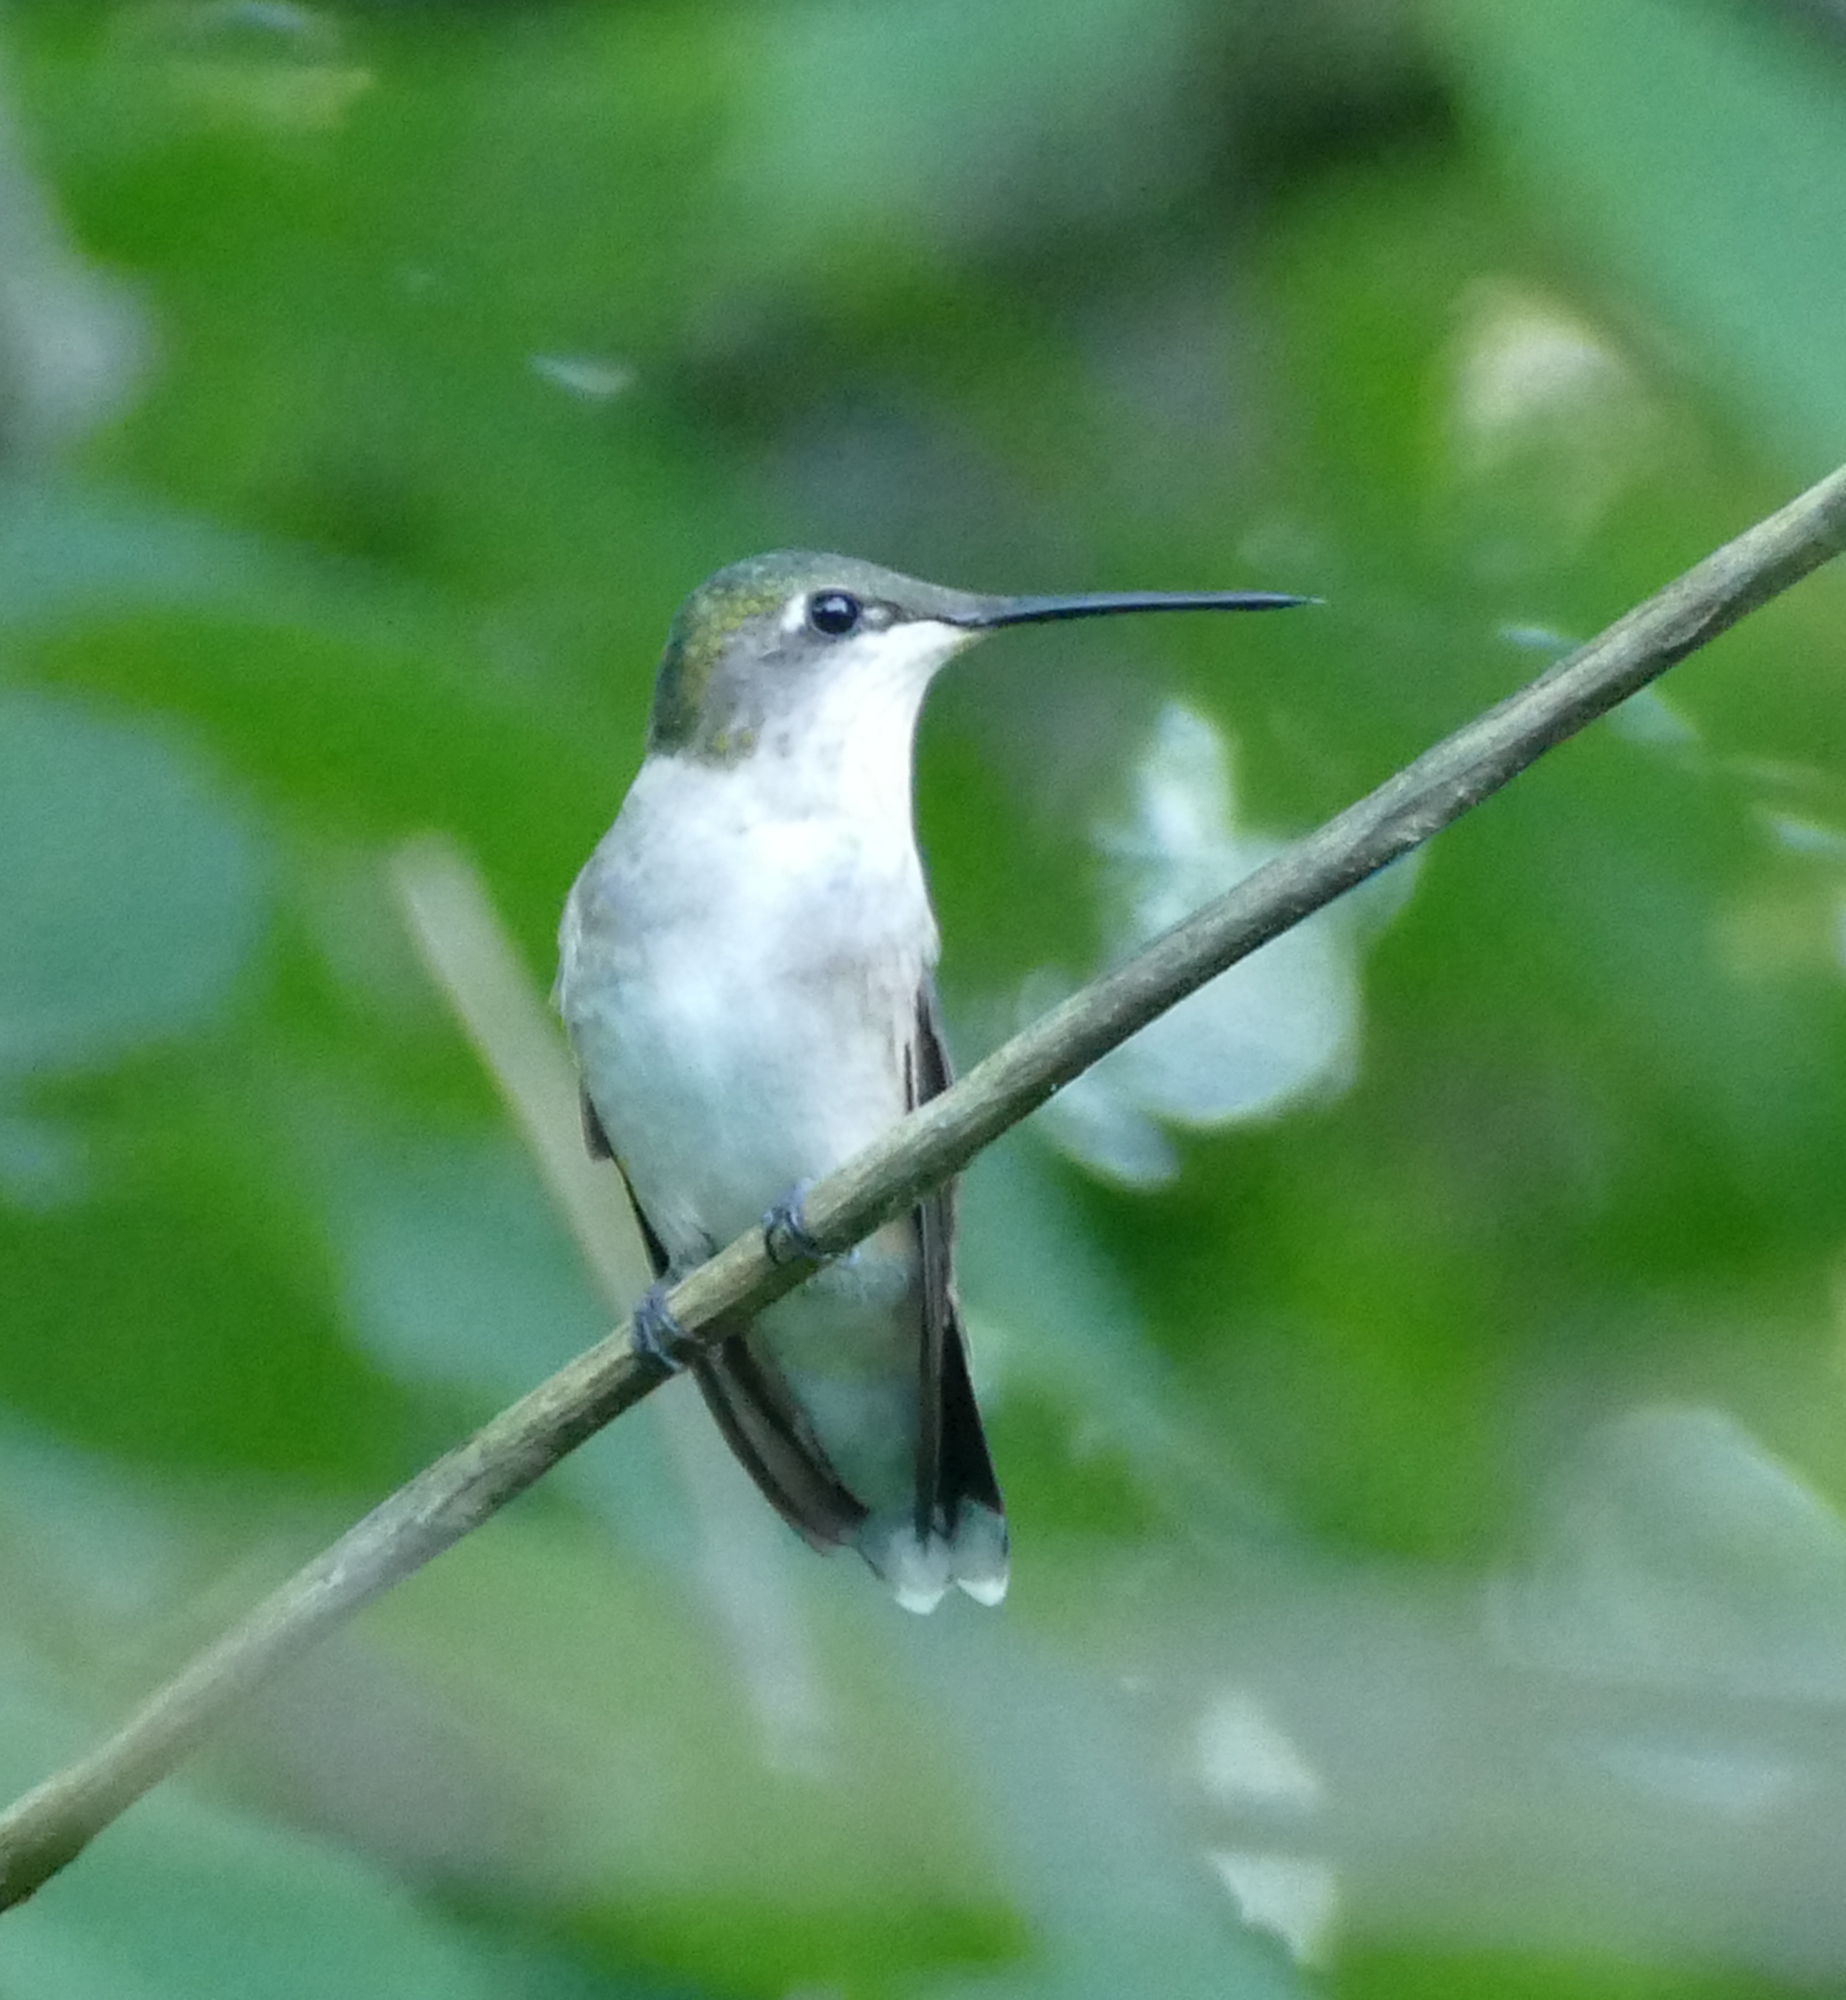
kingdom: Animalia
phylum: Chordata
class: Aves
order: Apodiformes
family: Trochilidae
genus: Archilochus
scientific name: Archilochus colubris
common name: Ruby-throated hummingbird
